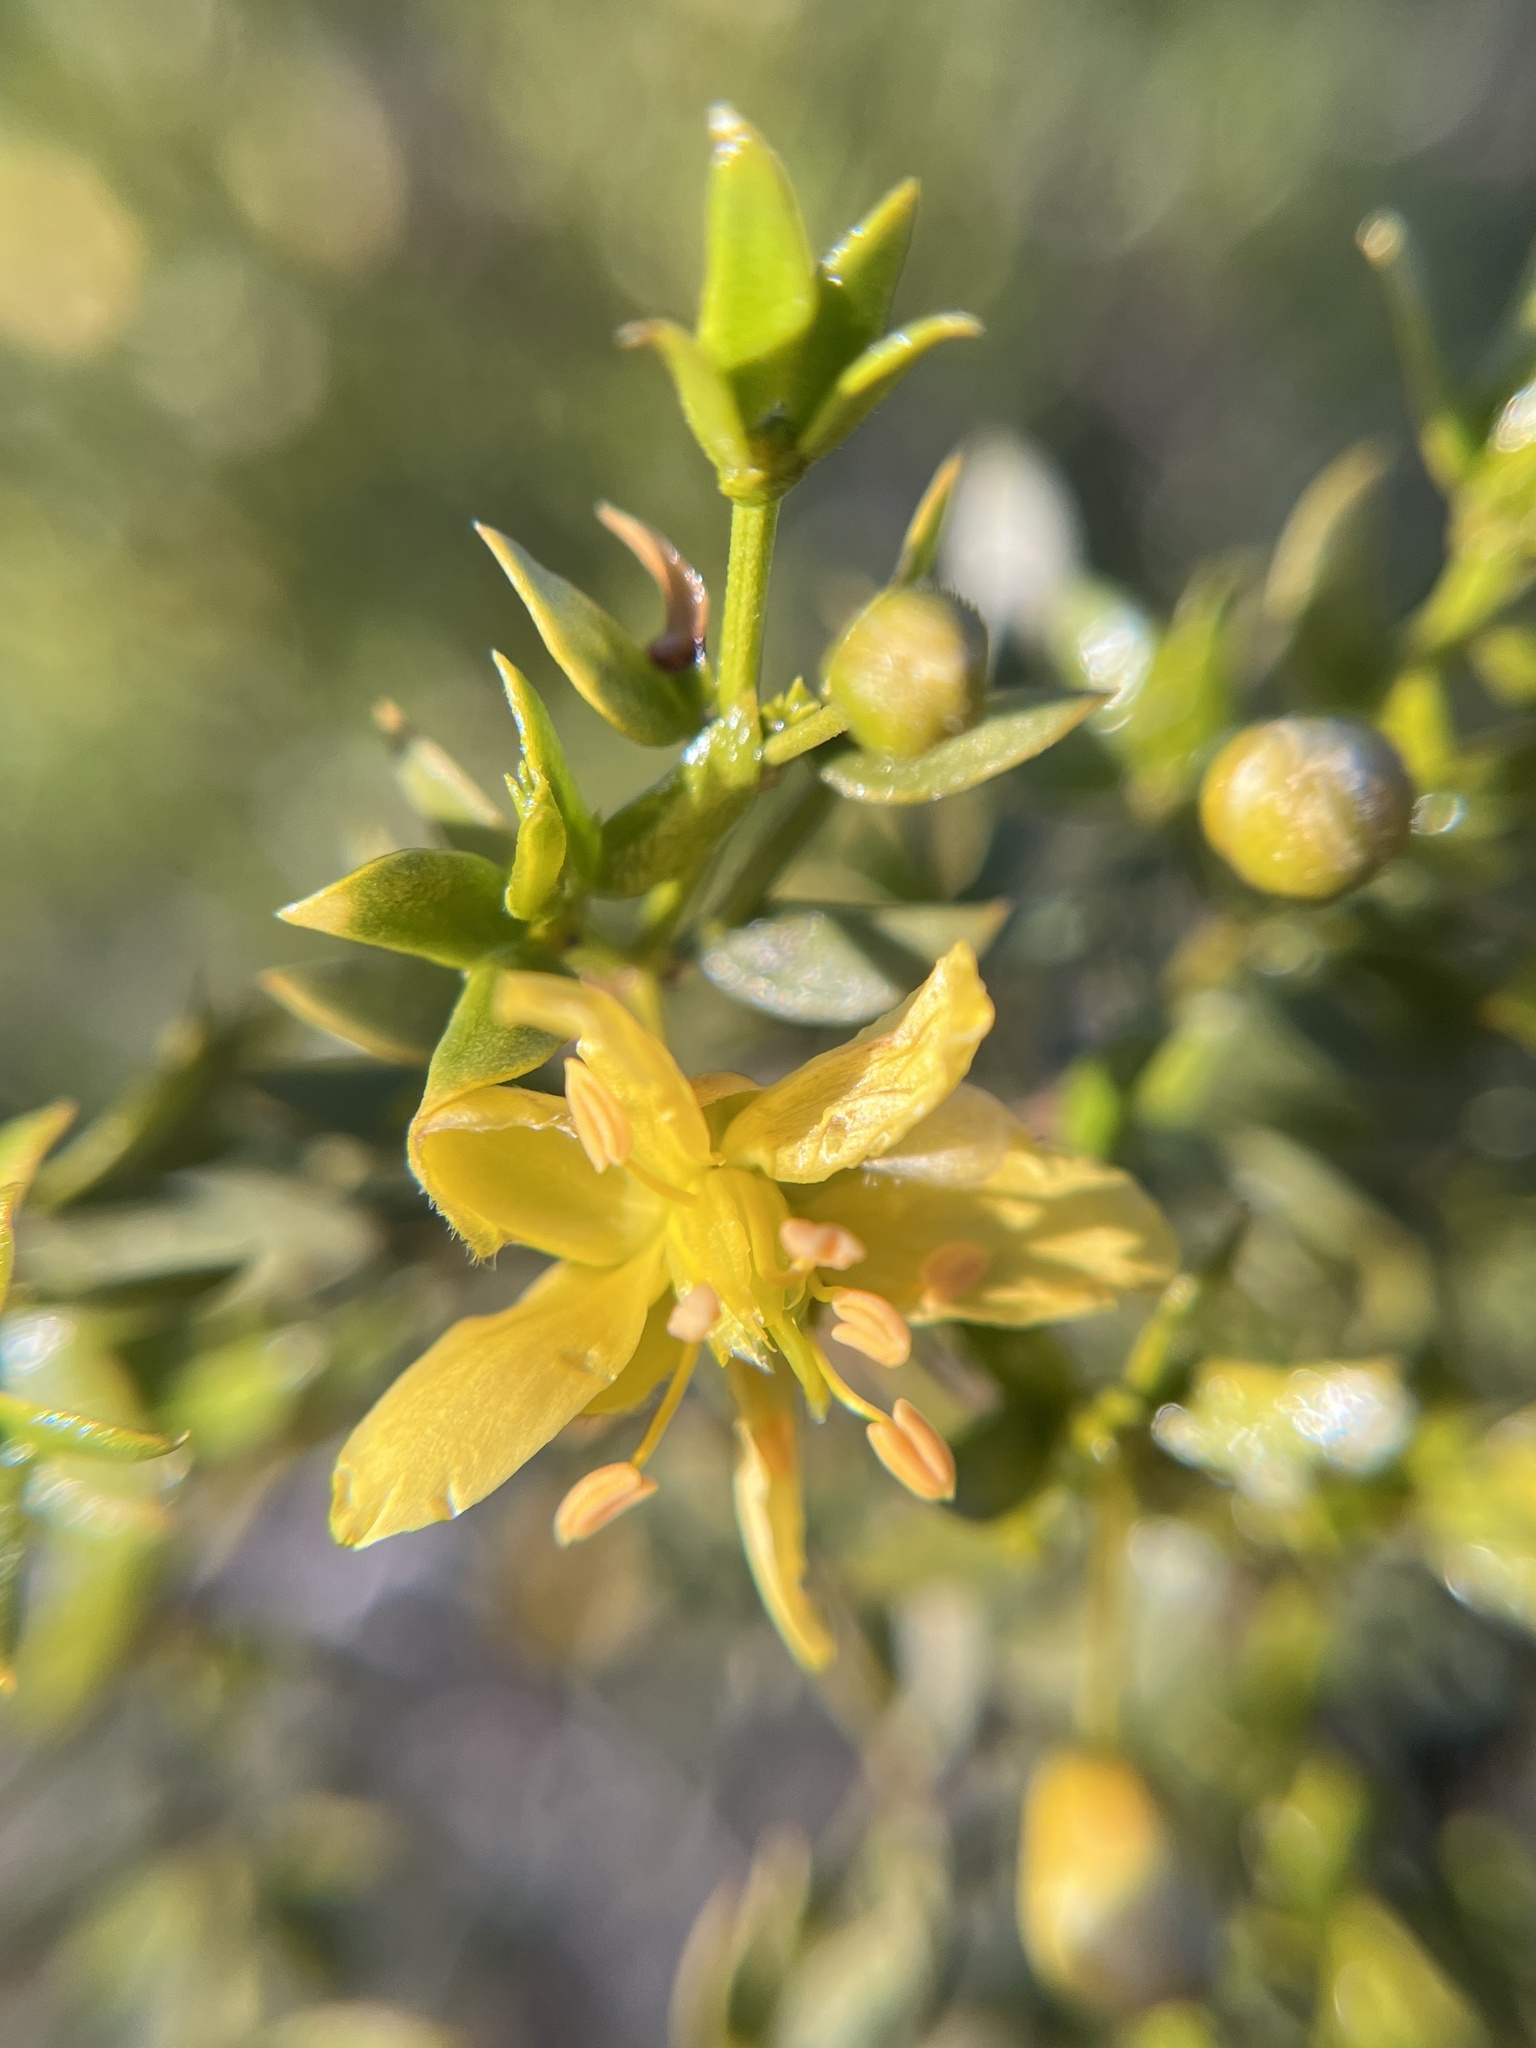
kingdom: Plantae
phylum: Tracheophyta
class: Magnoliopsida
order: Zygophyllales
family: Zygophyllaceae
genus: Larrea
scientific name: Larrea tridentata
